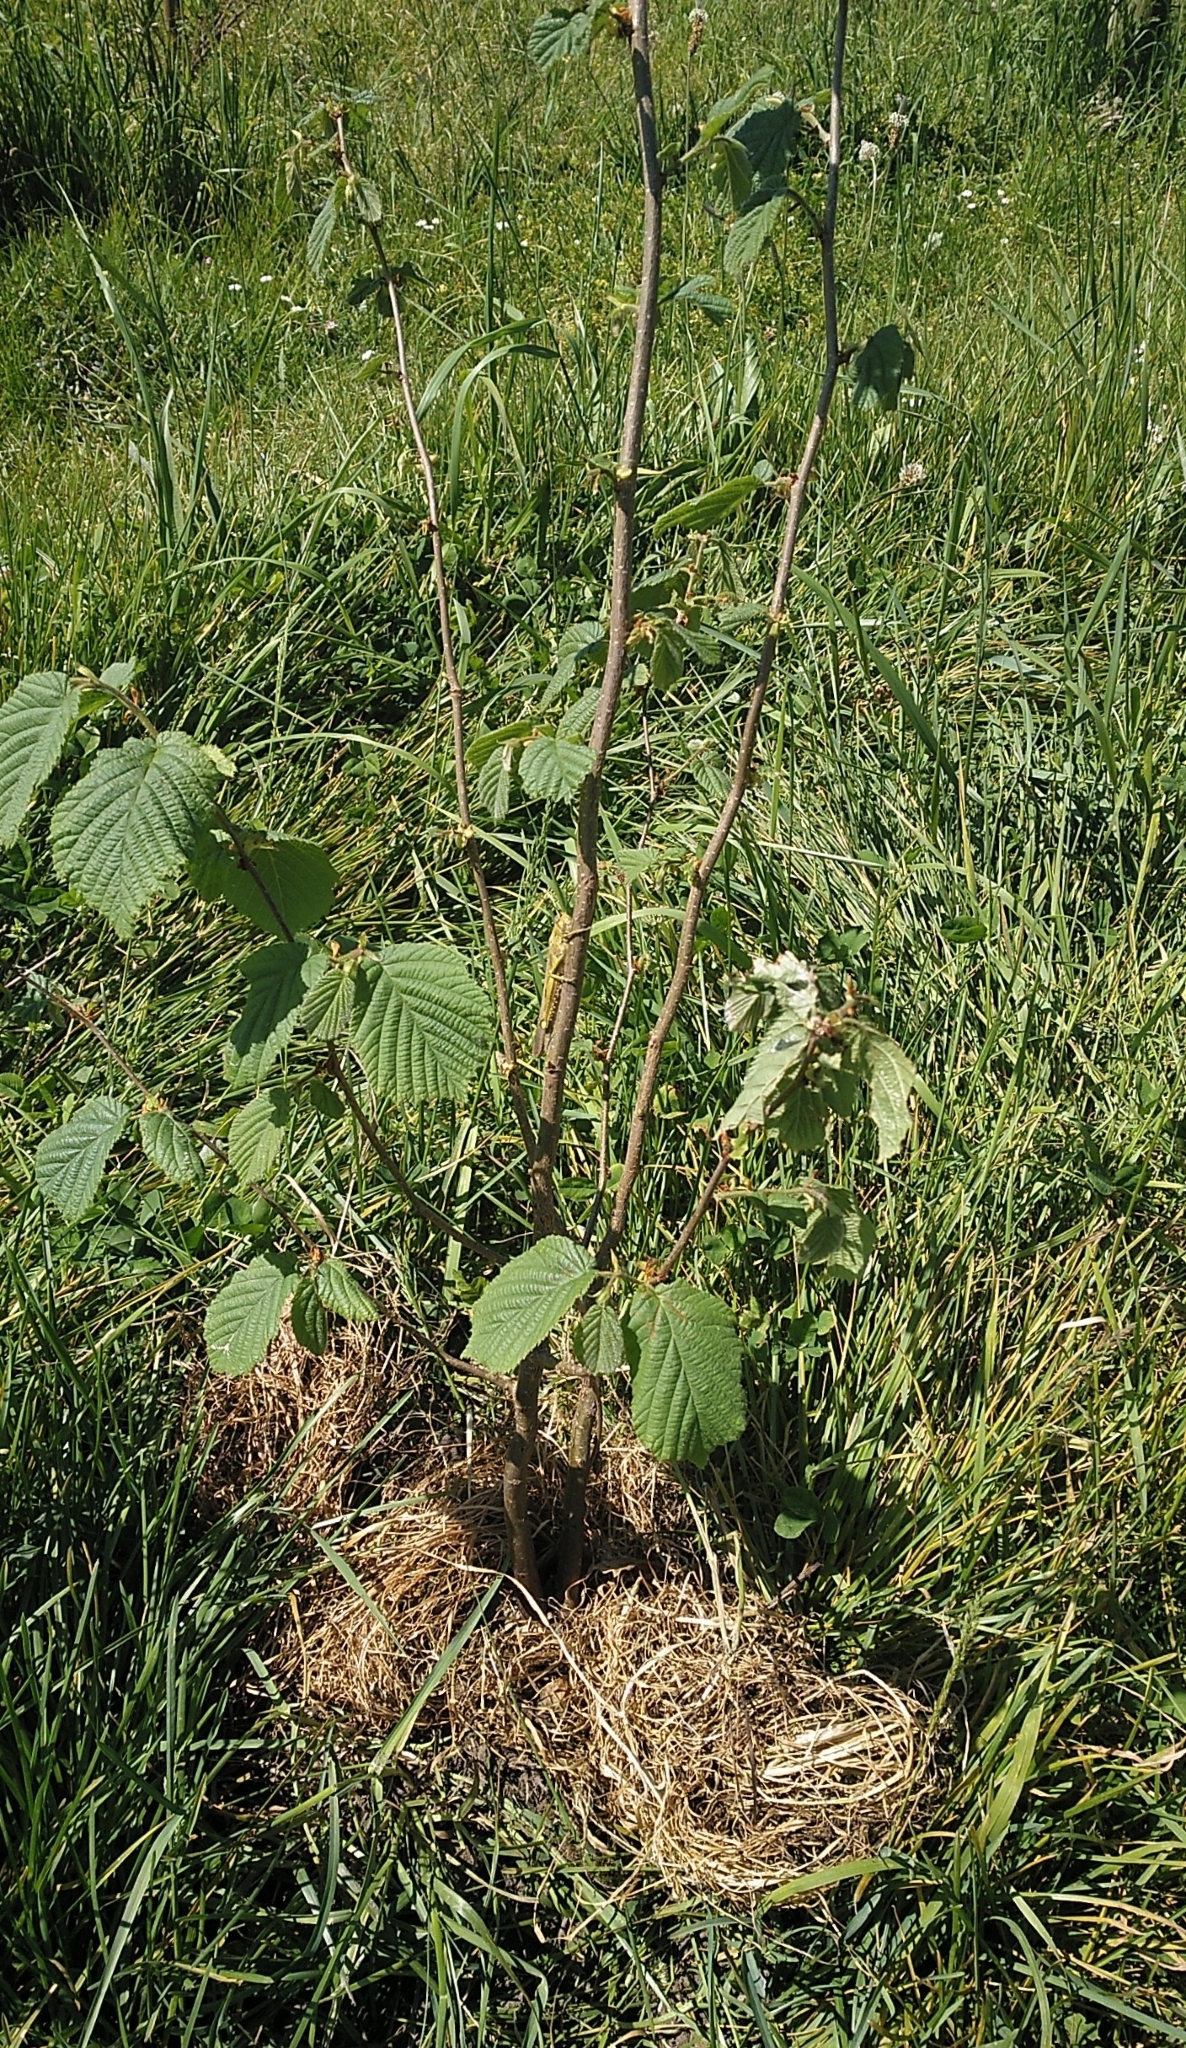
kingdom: Animalia
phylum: Arthropoda
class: Insecta
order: Orthoptera
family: Acrididae
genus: Anacridium
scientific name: Anacridium aegyptium
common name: Egyptian grasshopper
